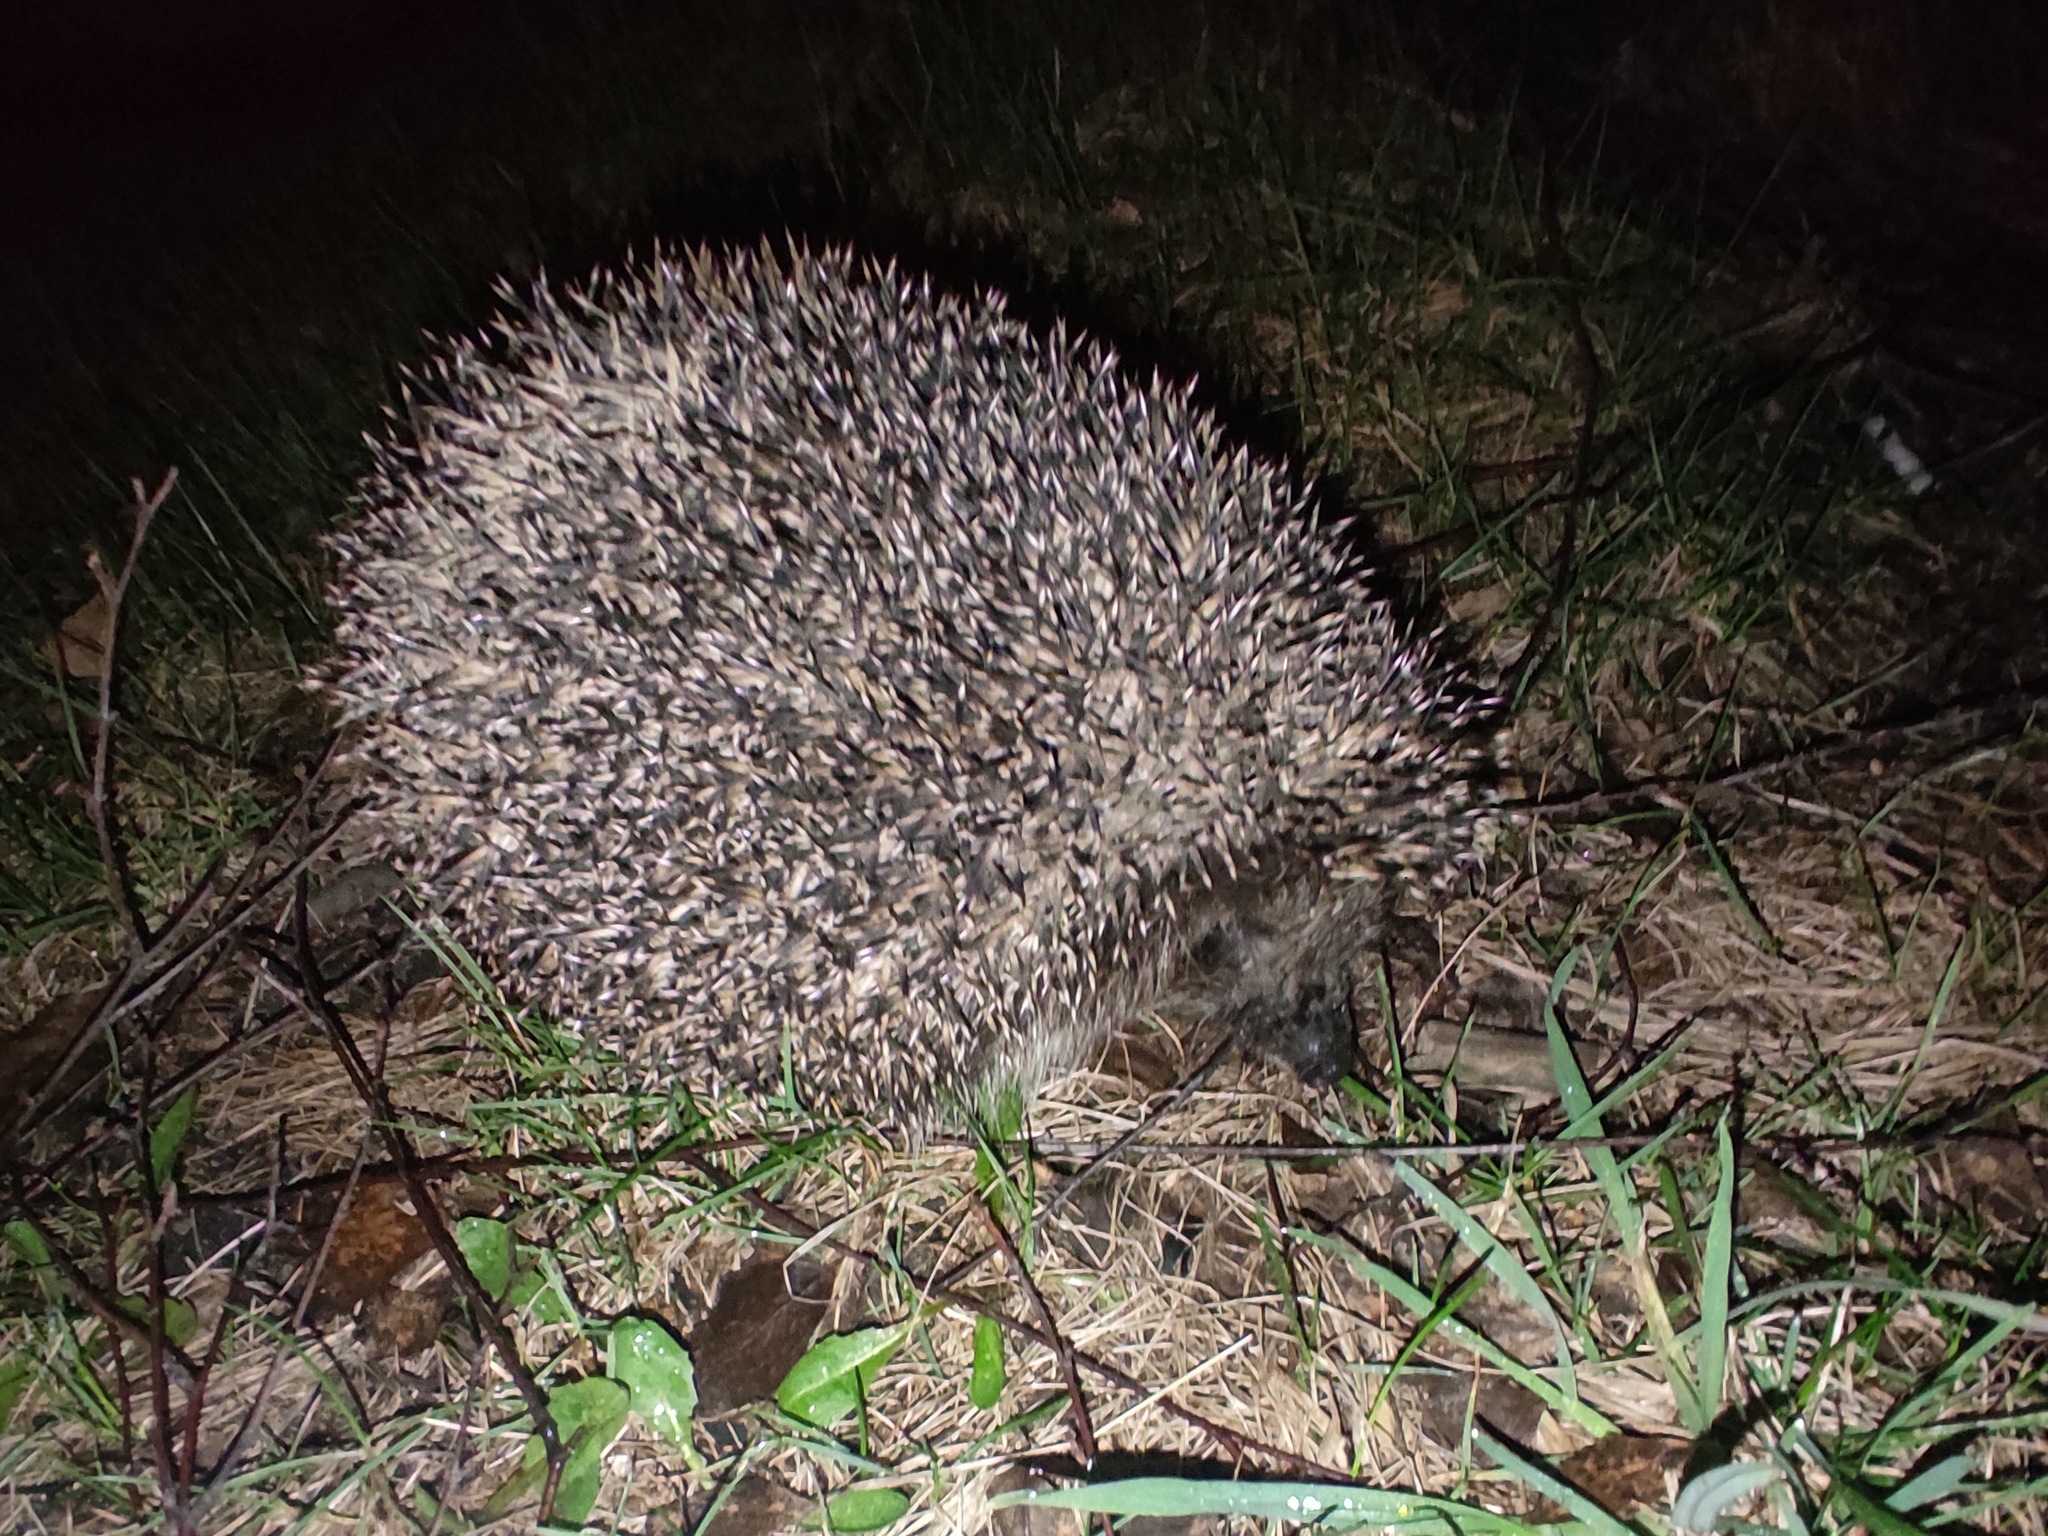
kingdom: Animalia
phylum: Chordata
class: Mammalia
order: Erinaceomorpha
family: Erinaceidae
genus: Erinaceus
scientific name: Erinaceus roumanicus
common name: Northern white-breasted hedgehog
